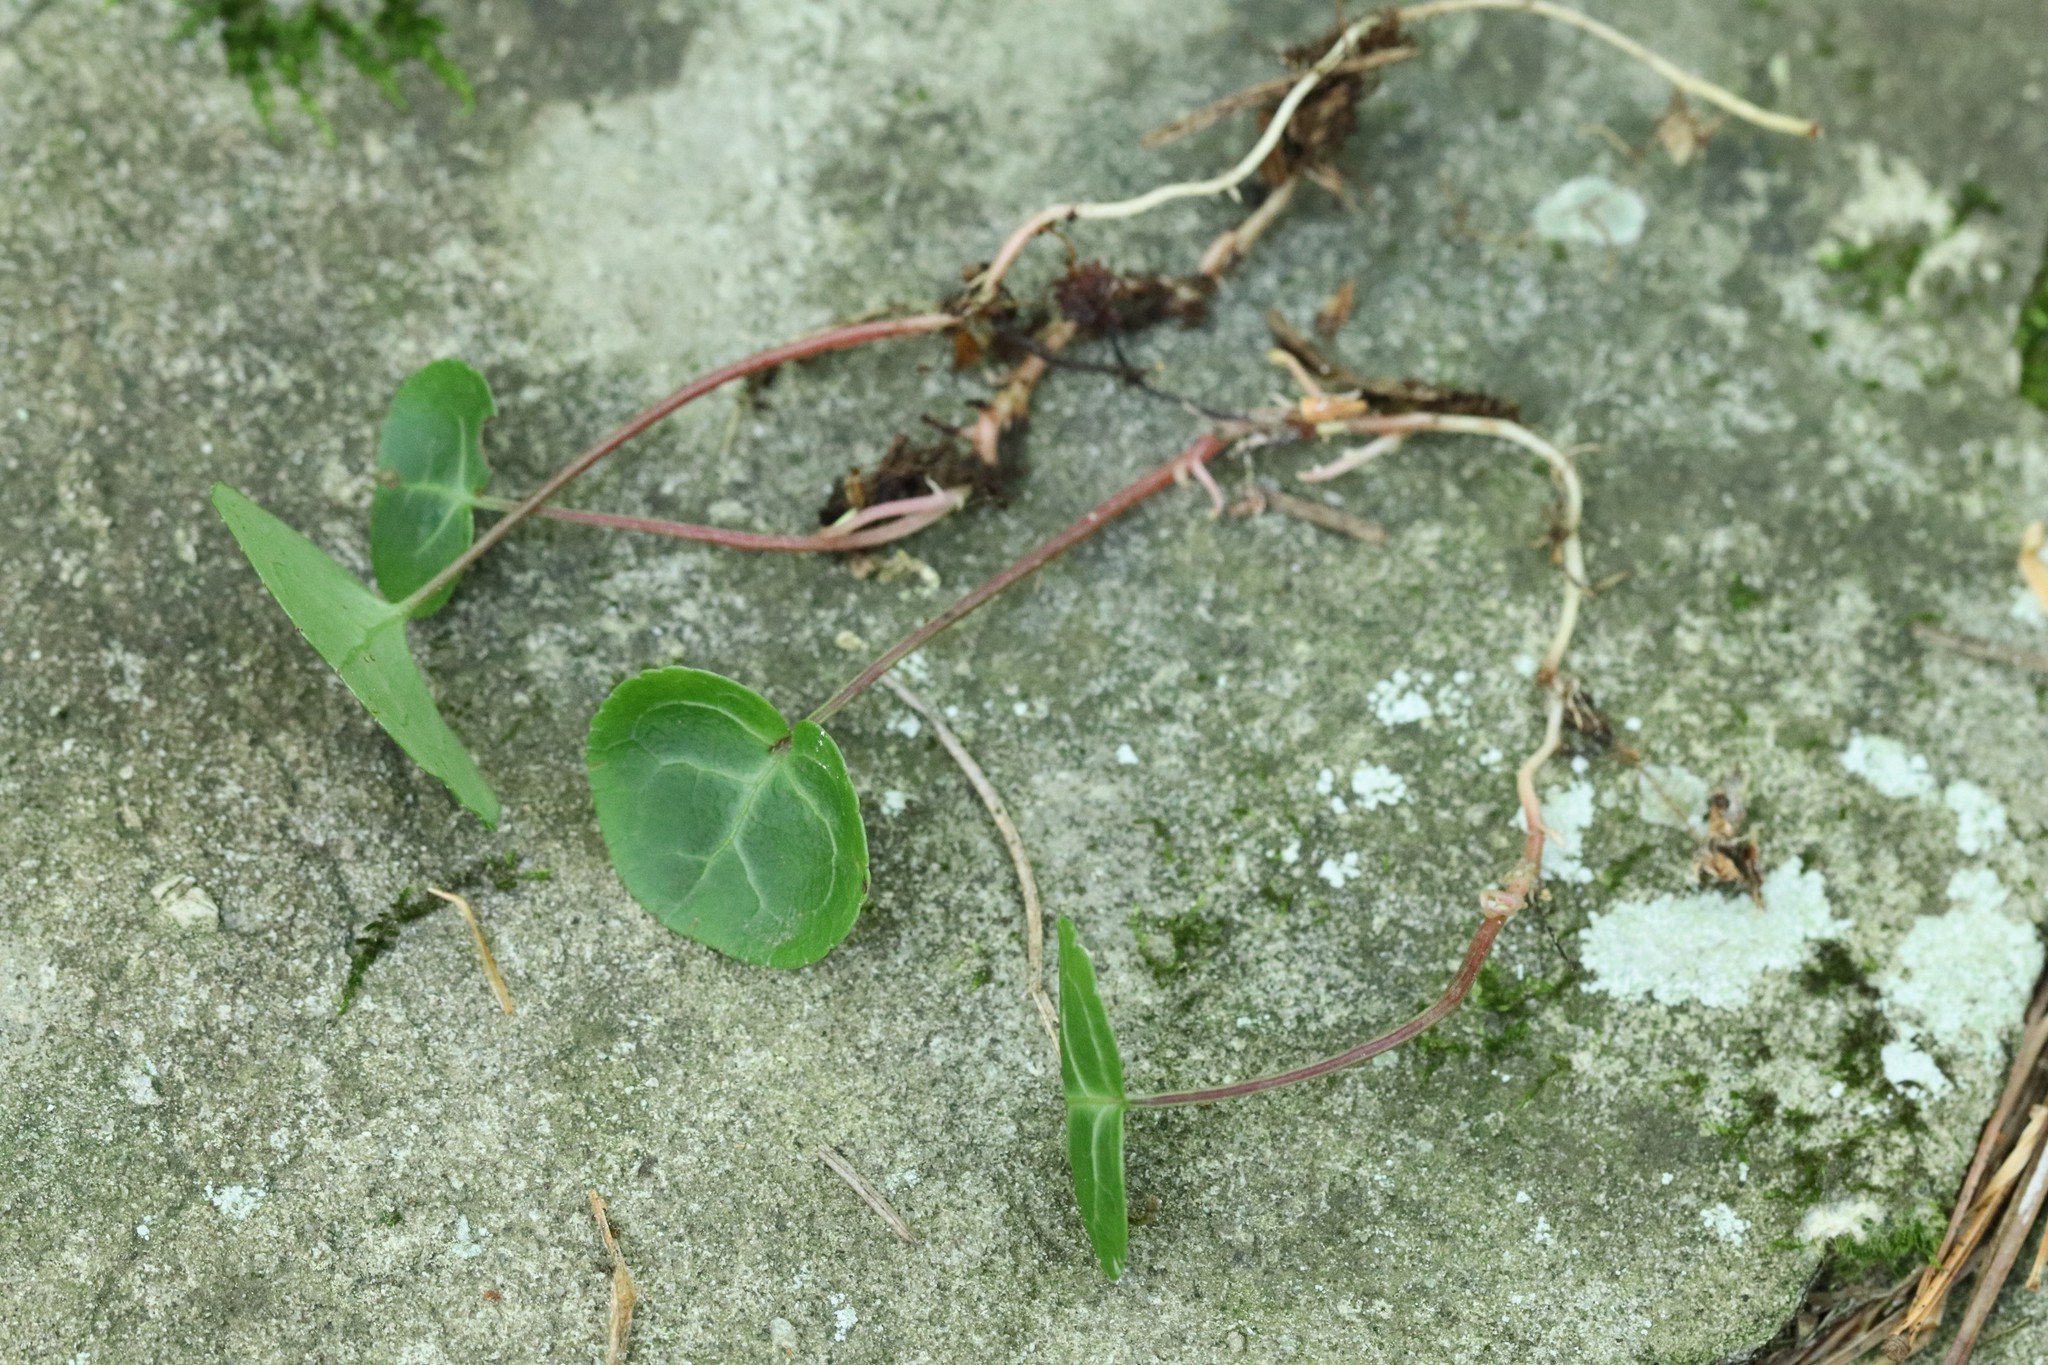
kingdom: Plantae
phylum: Tracheophyta
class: Magnoliopsida
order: Ericales
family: Ericaceae
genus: Pyrola
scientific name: Pyrola renifolia
